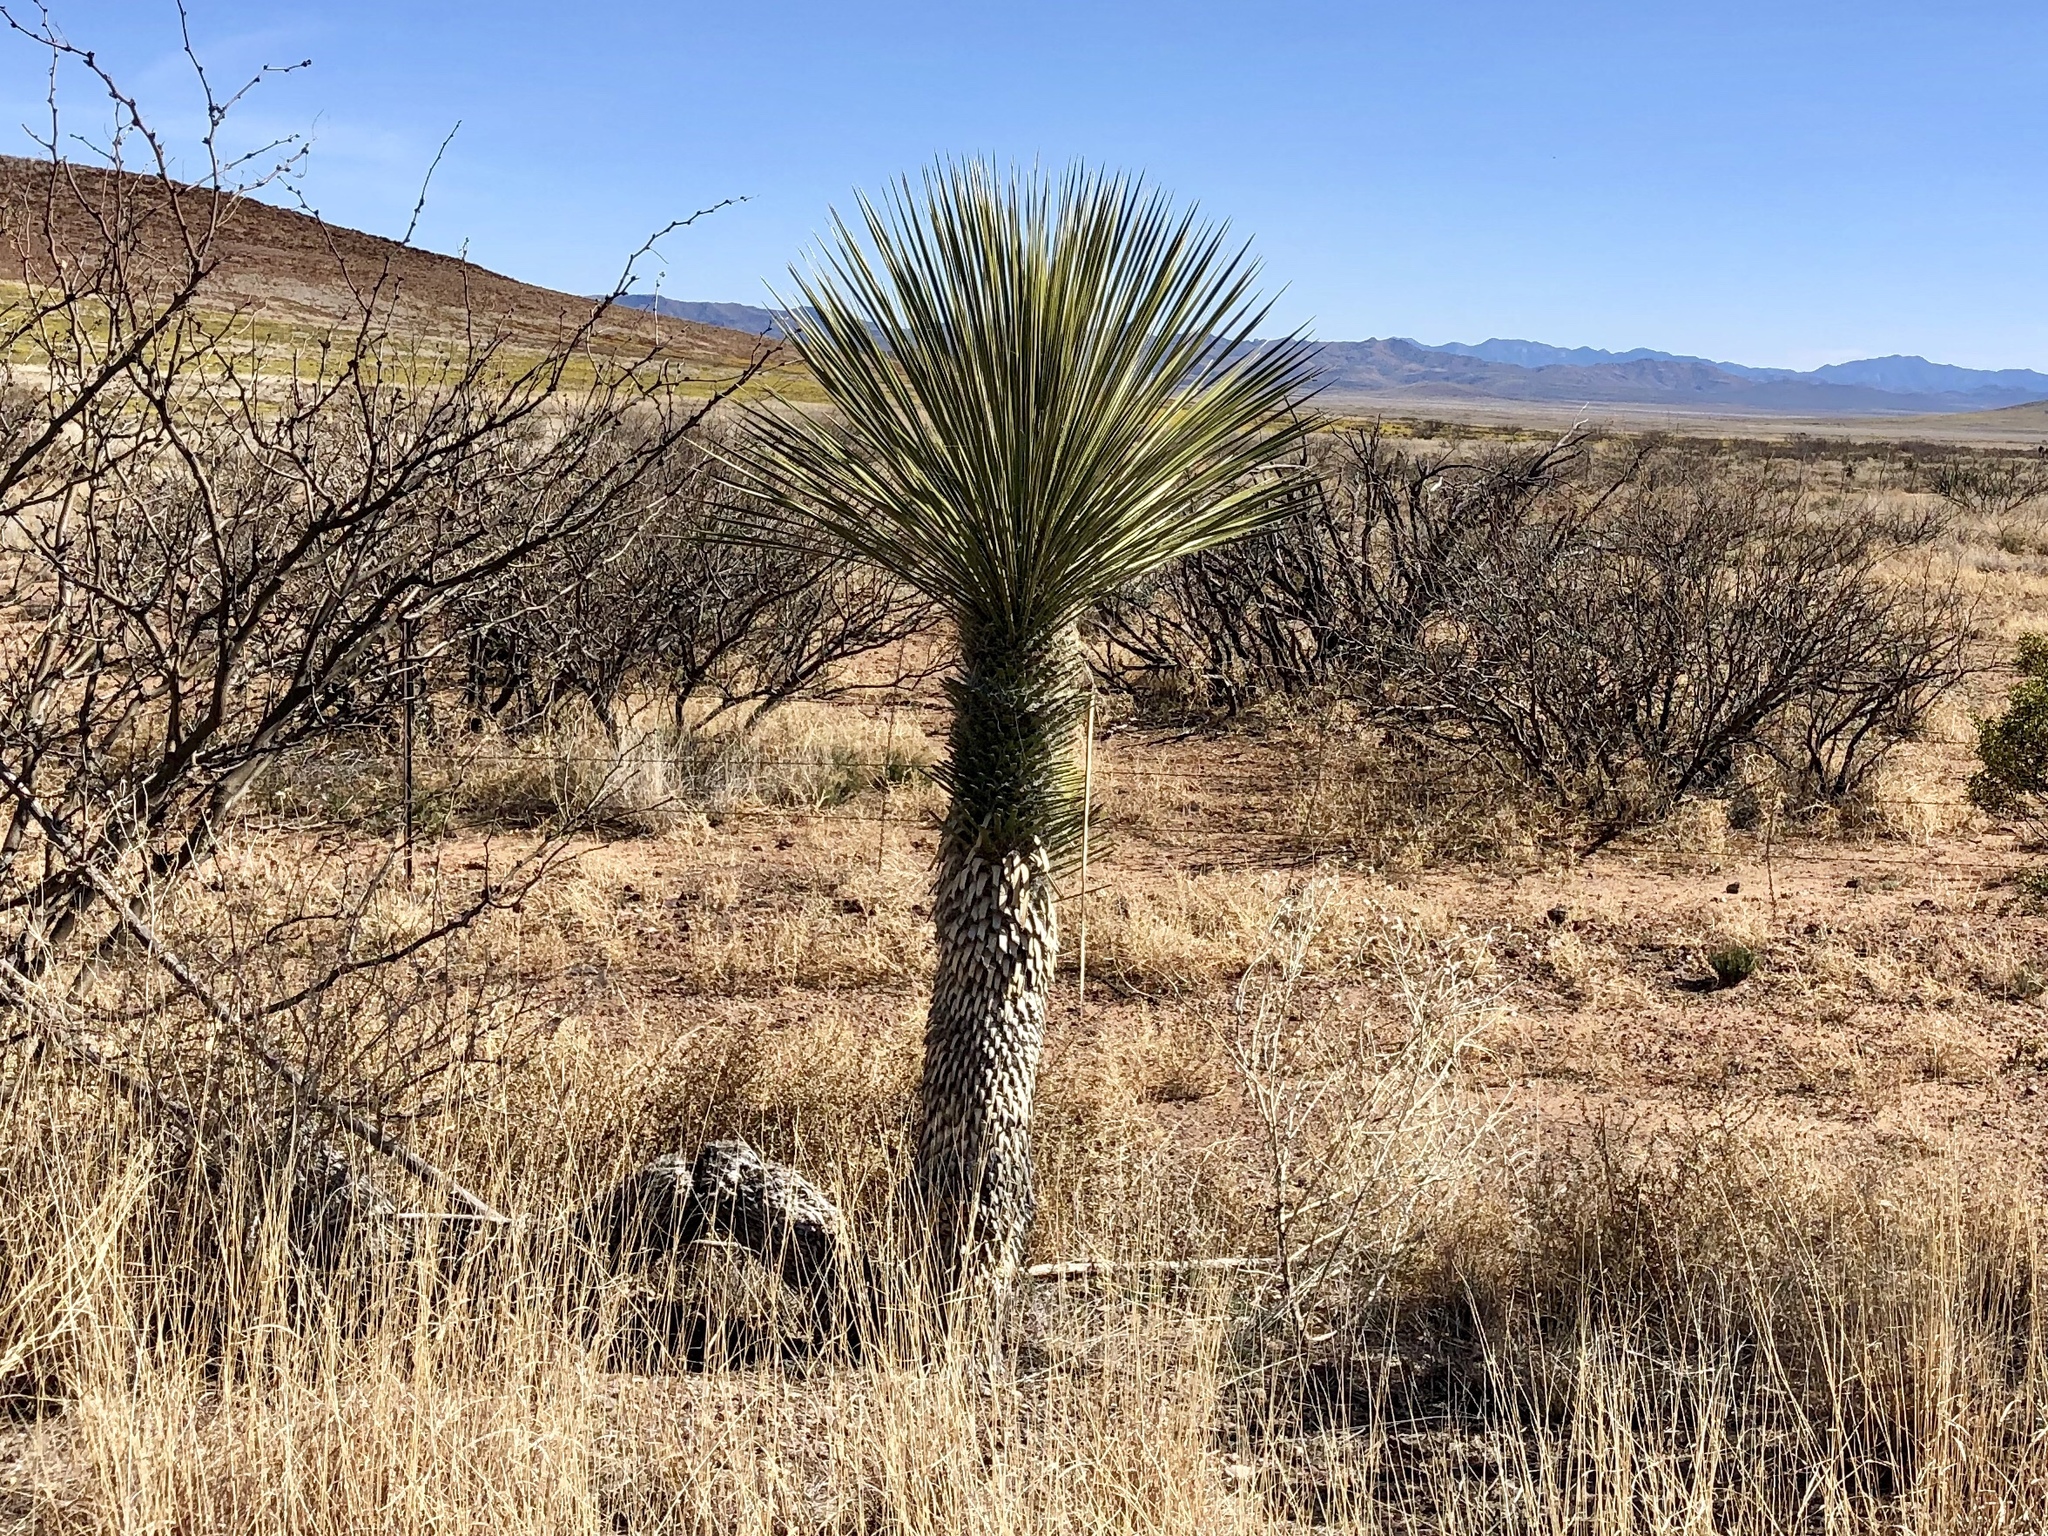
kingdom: Plantae
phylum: Tracheophyta
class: Liliopsida
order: Asparagales
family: Asparagaceae
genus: Yucca
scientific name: Yucca elata
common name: Palmella
